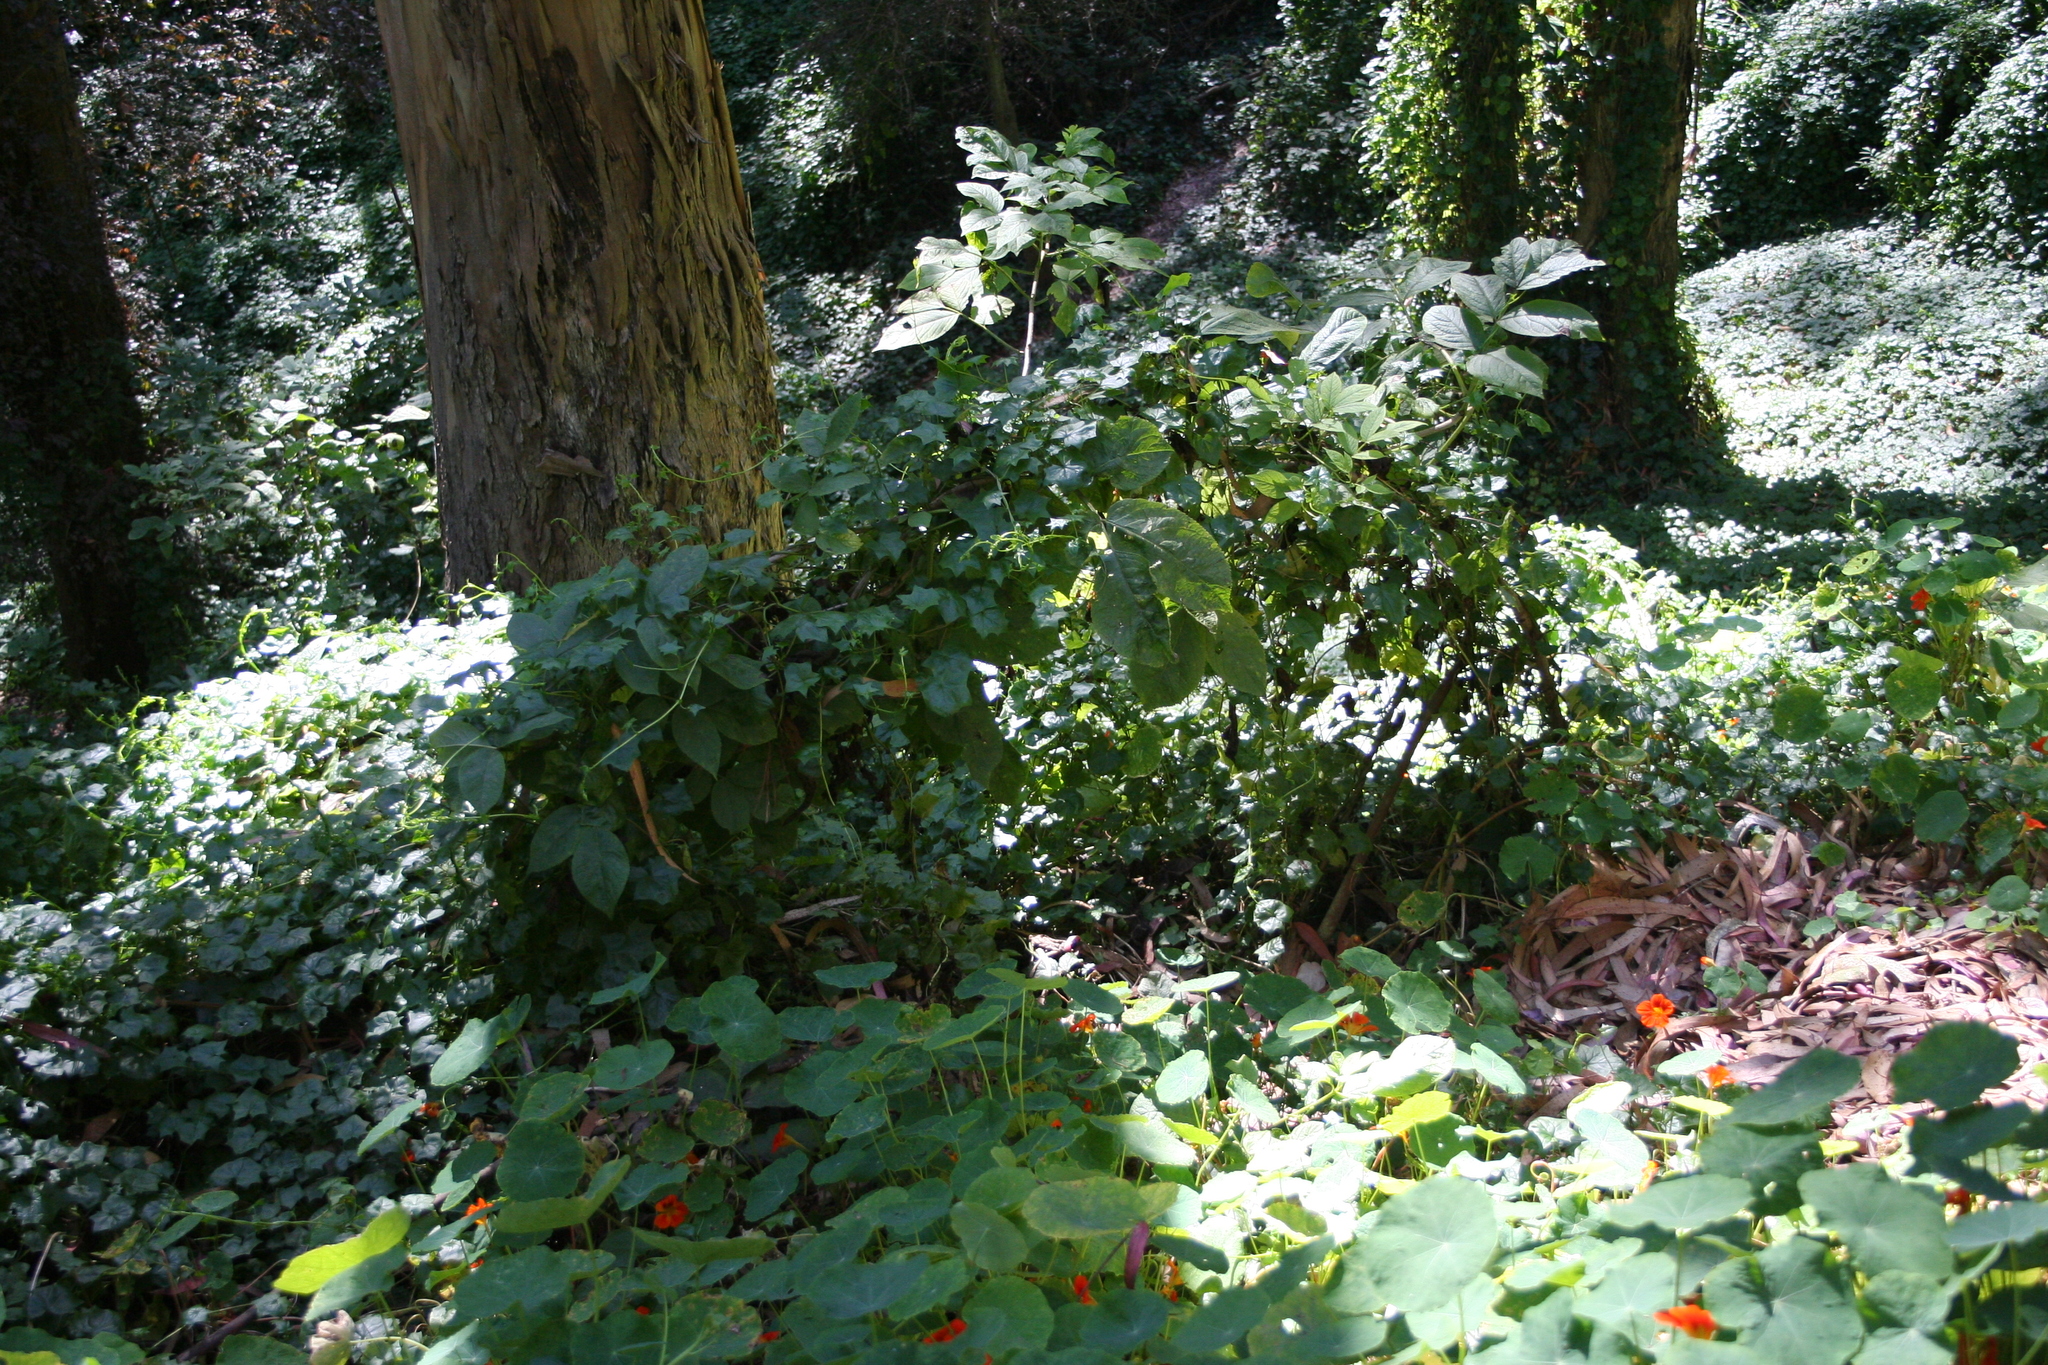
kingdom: Plantae
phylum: Tracheophyta
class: Magnoliopsida
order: Dipsacales
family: Viburnaceae
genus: Sambucus
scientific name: Sambucus racemosa
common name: Red-berried elder
